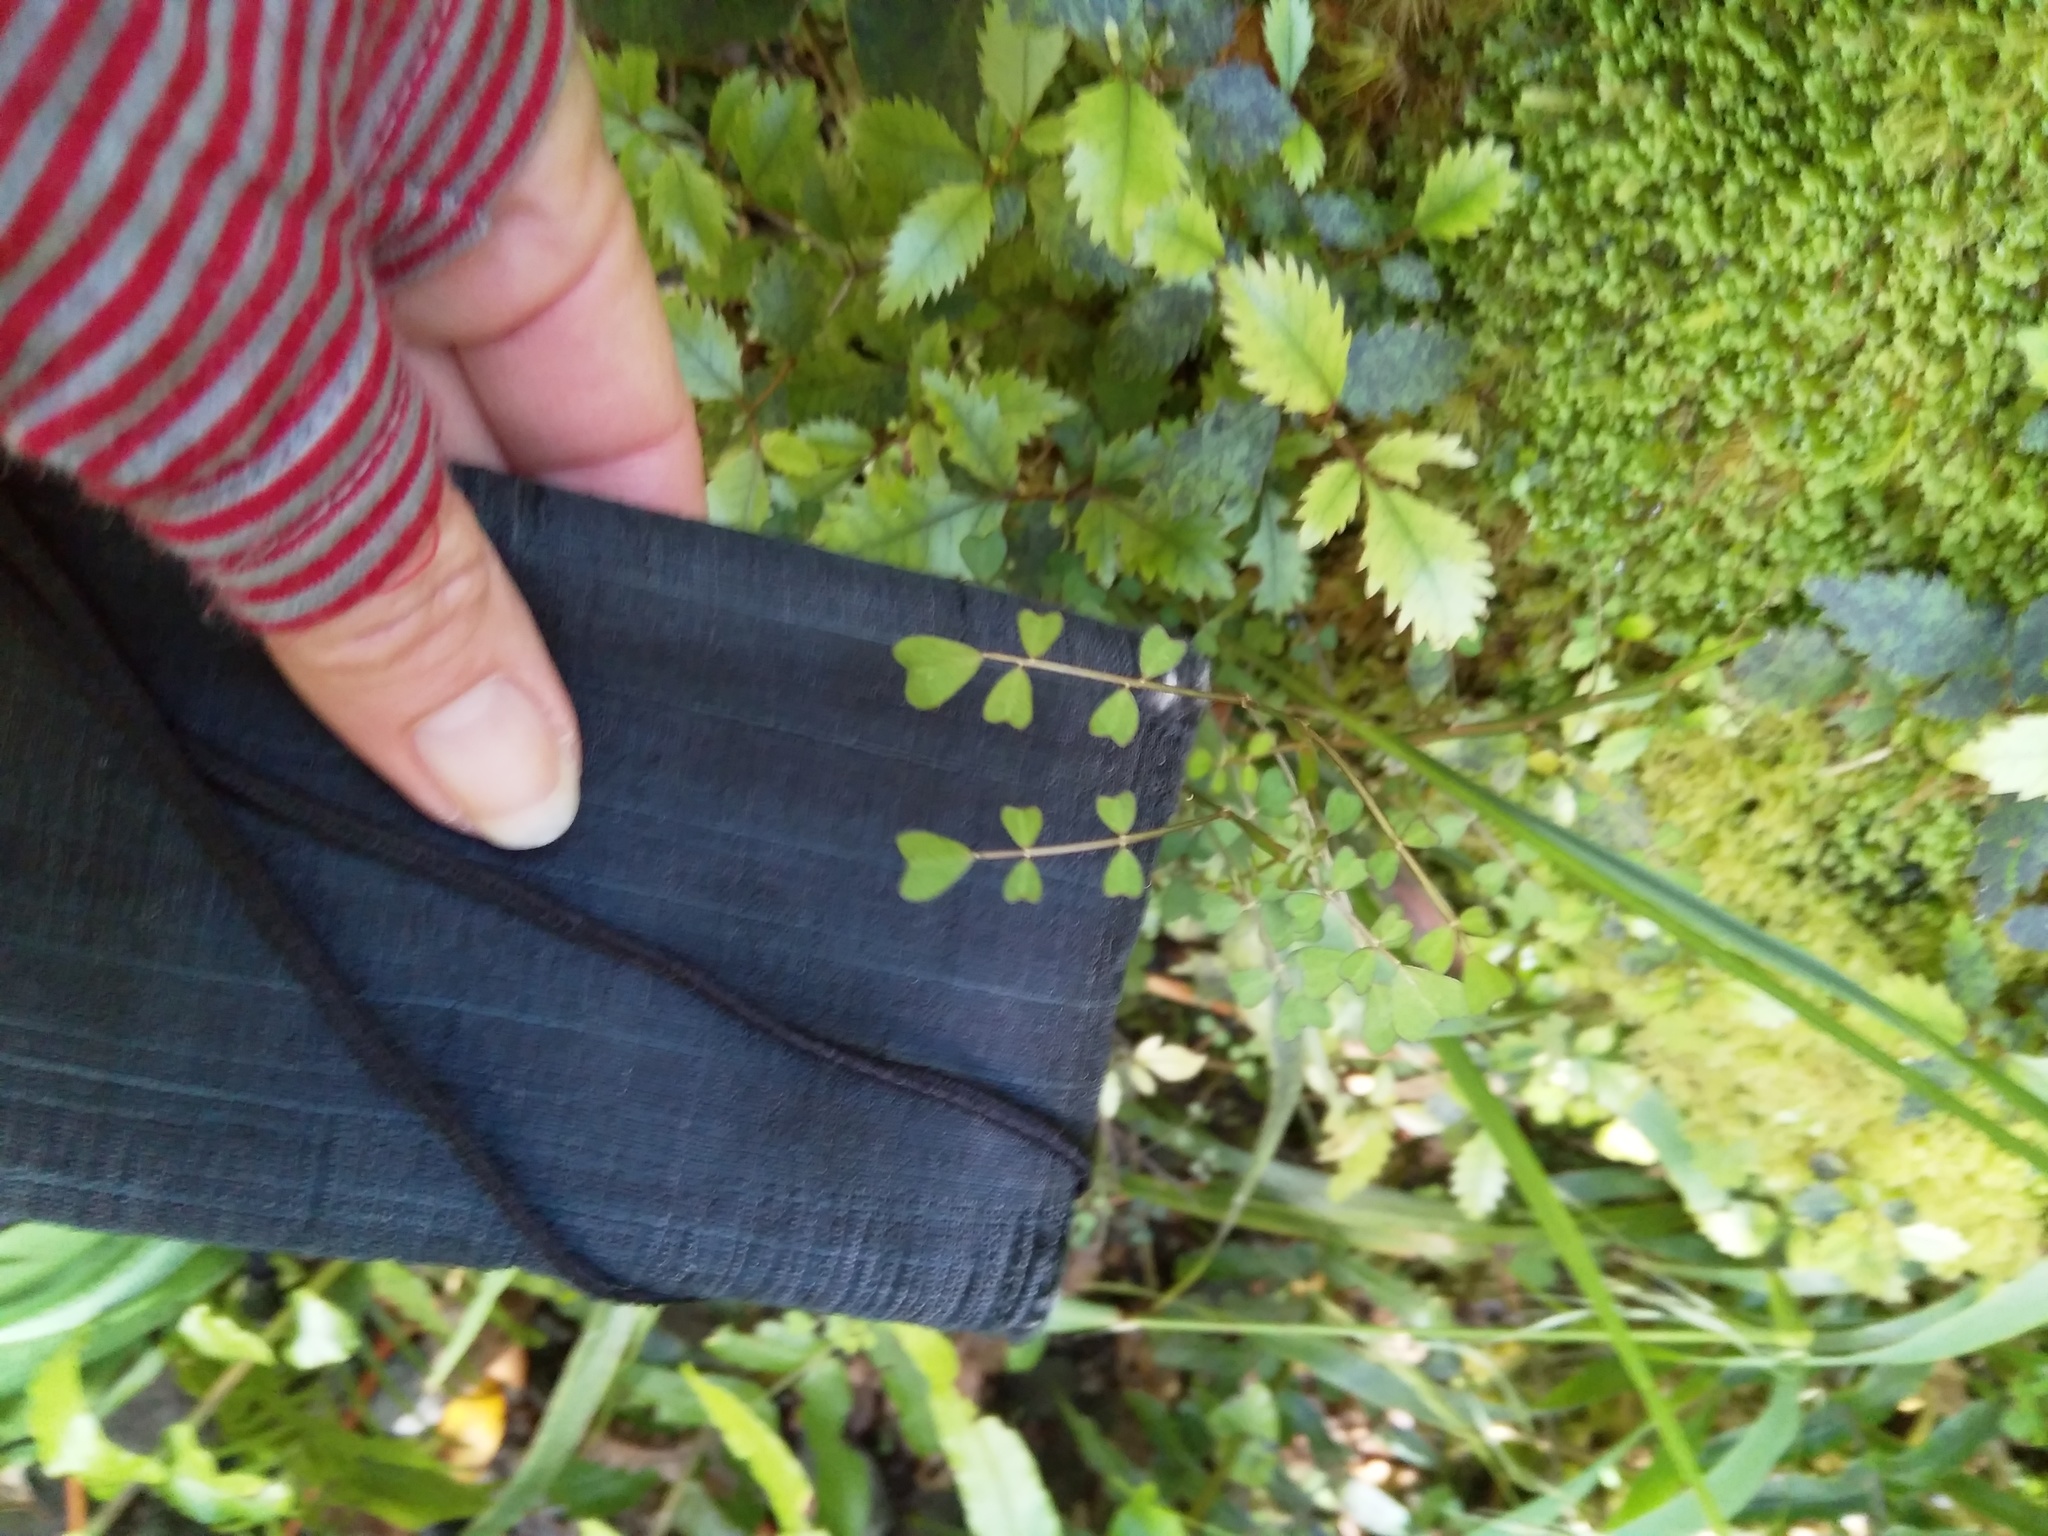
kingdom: Plantae
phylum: Tracheophyta
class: Magnoliopsida
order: Fabales
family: Fabaceae
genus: Carmichaelia
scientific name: Carmichaelia australis
